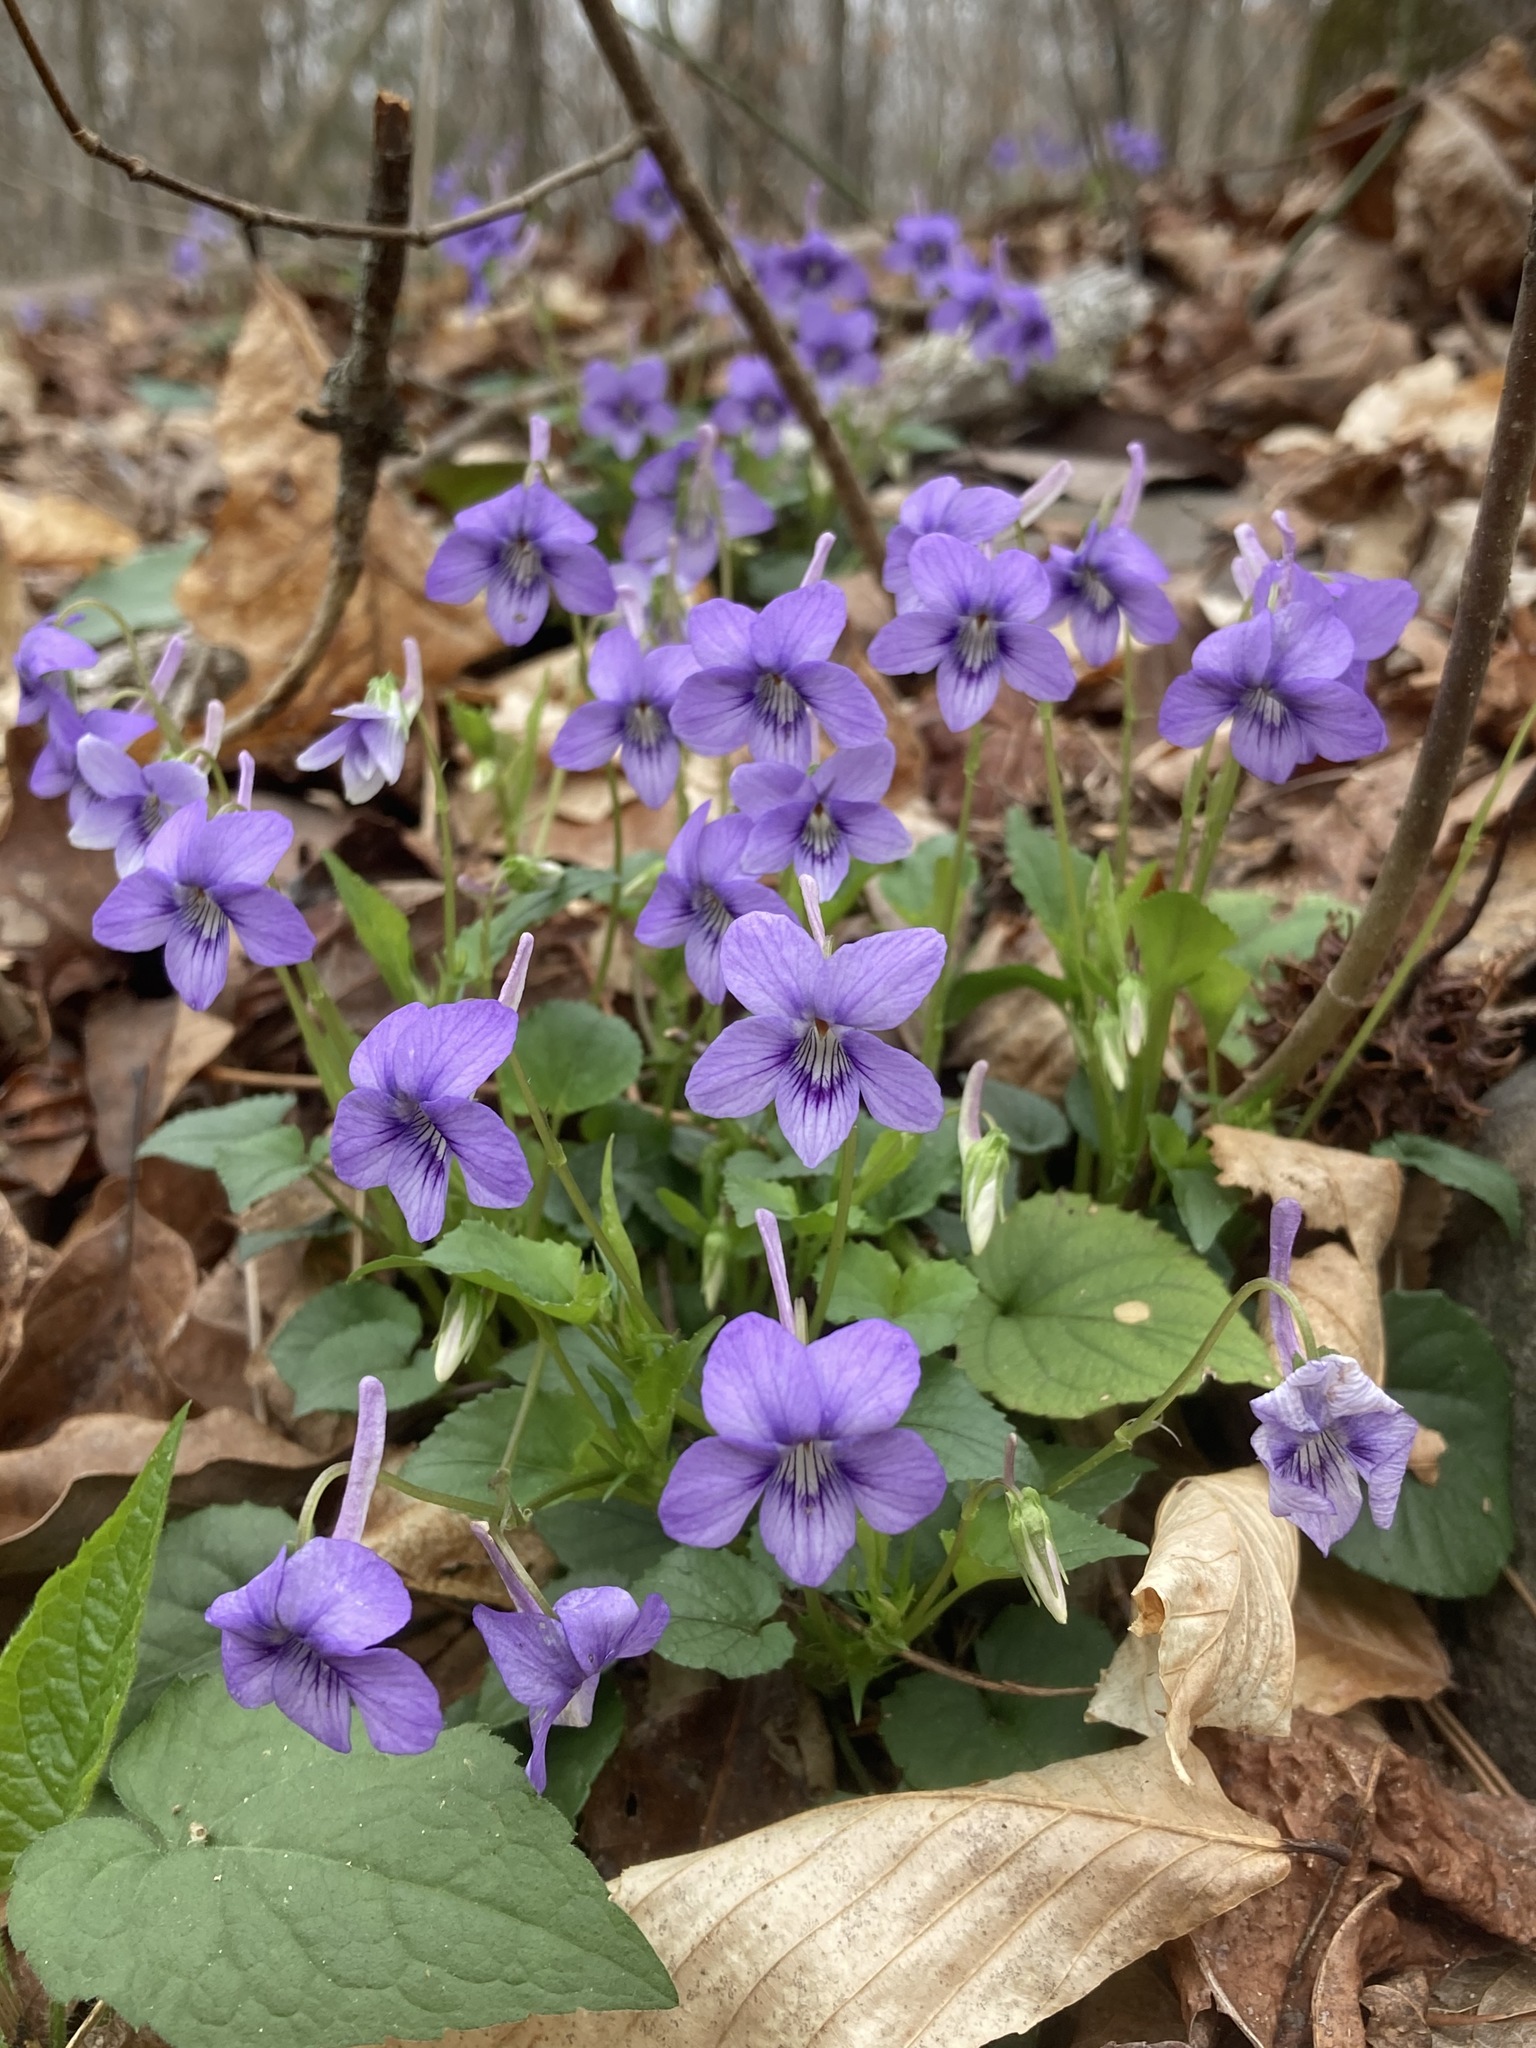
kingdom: Plantae
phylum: Tracheophyta
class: Magnoliopsida
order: Malpighiales
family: Violaceae
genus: Viola
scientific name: Viola rostrata
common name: Long-spur violet
